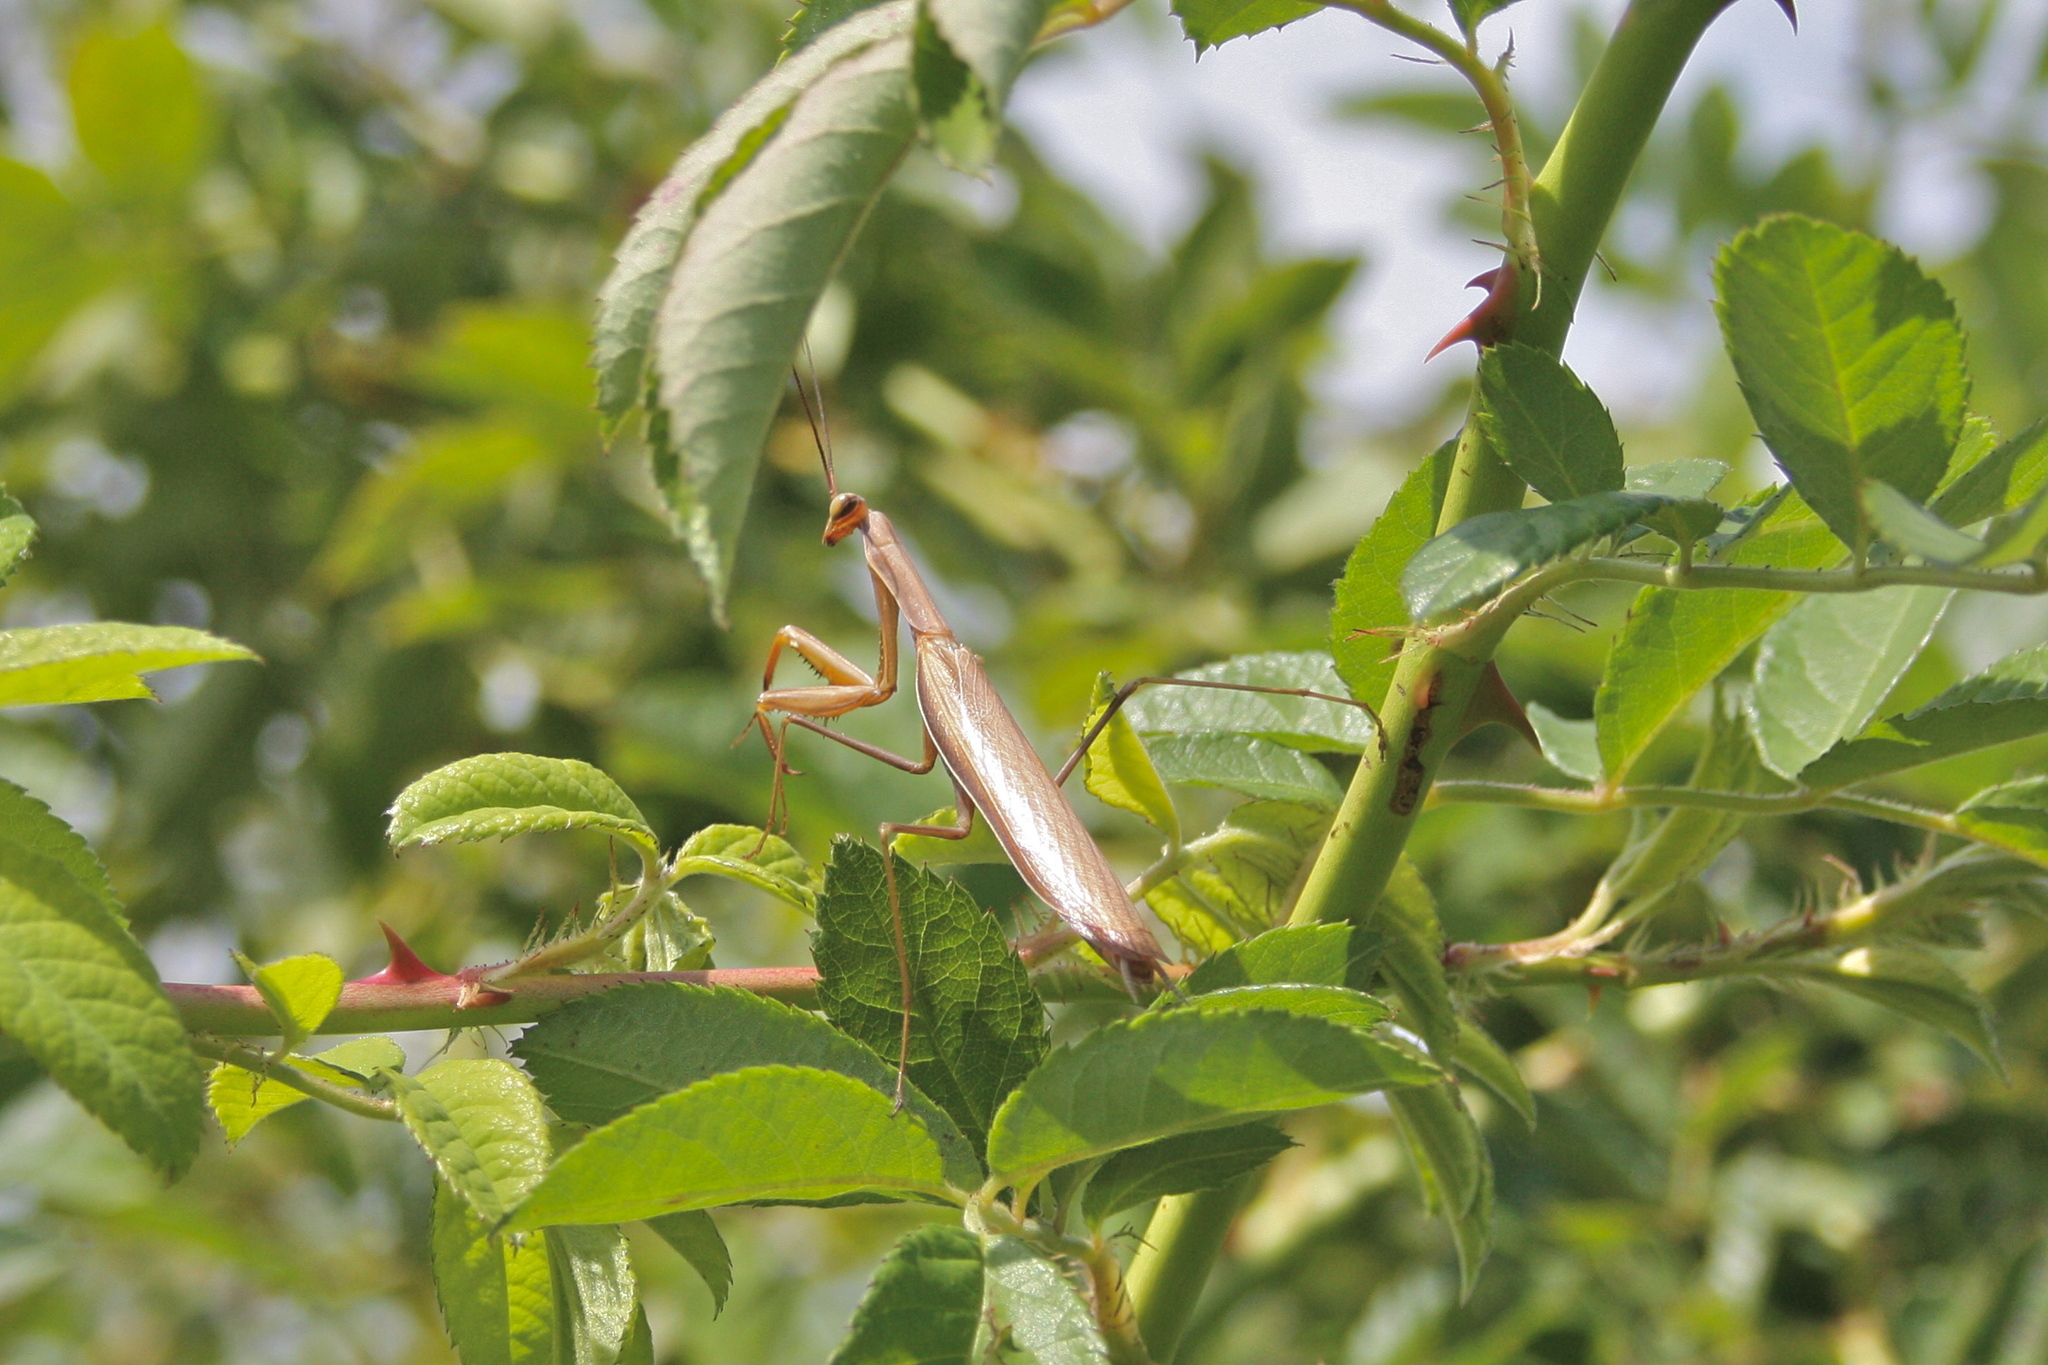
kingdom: Animalia
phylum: Arthropoda
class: Insecta
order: Mantodea
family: Mantidae
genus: Mantis
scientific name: Mantis religiosa
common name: Praying mantis
